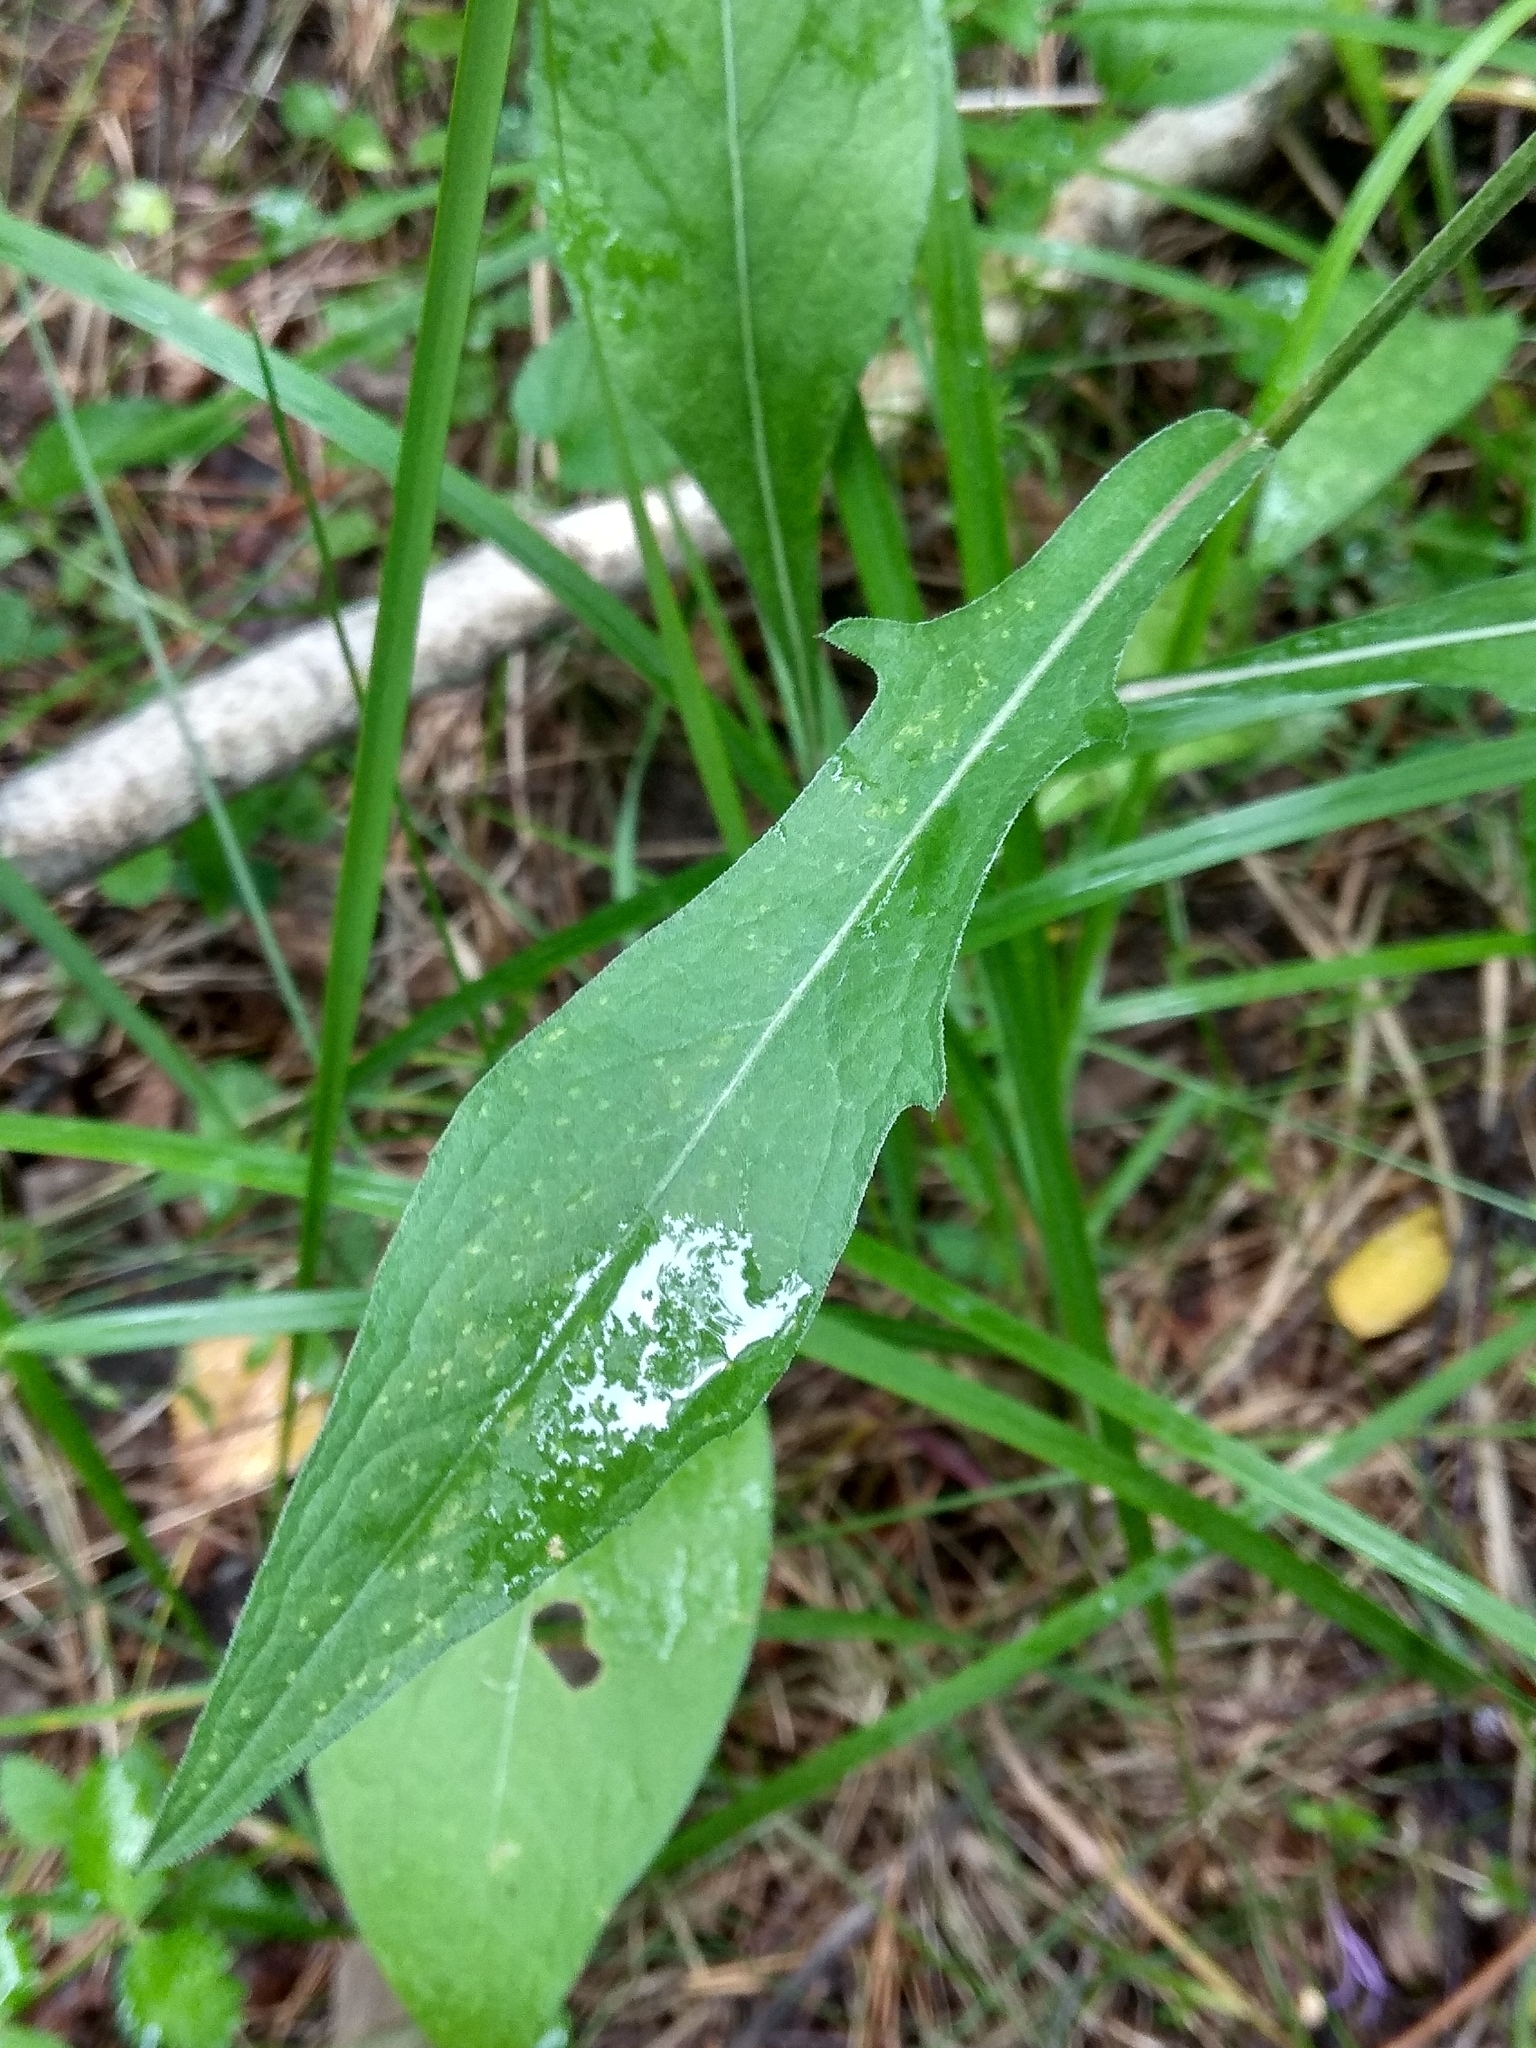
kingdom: Plantae
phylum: Tracheophyta
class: Magnoliopsida
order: Asterales
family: Asteraceae
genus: Centaurea
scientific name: Centaurea jacea
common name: Brown knapweed
